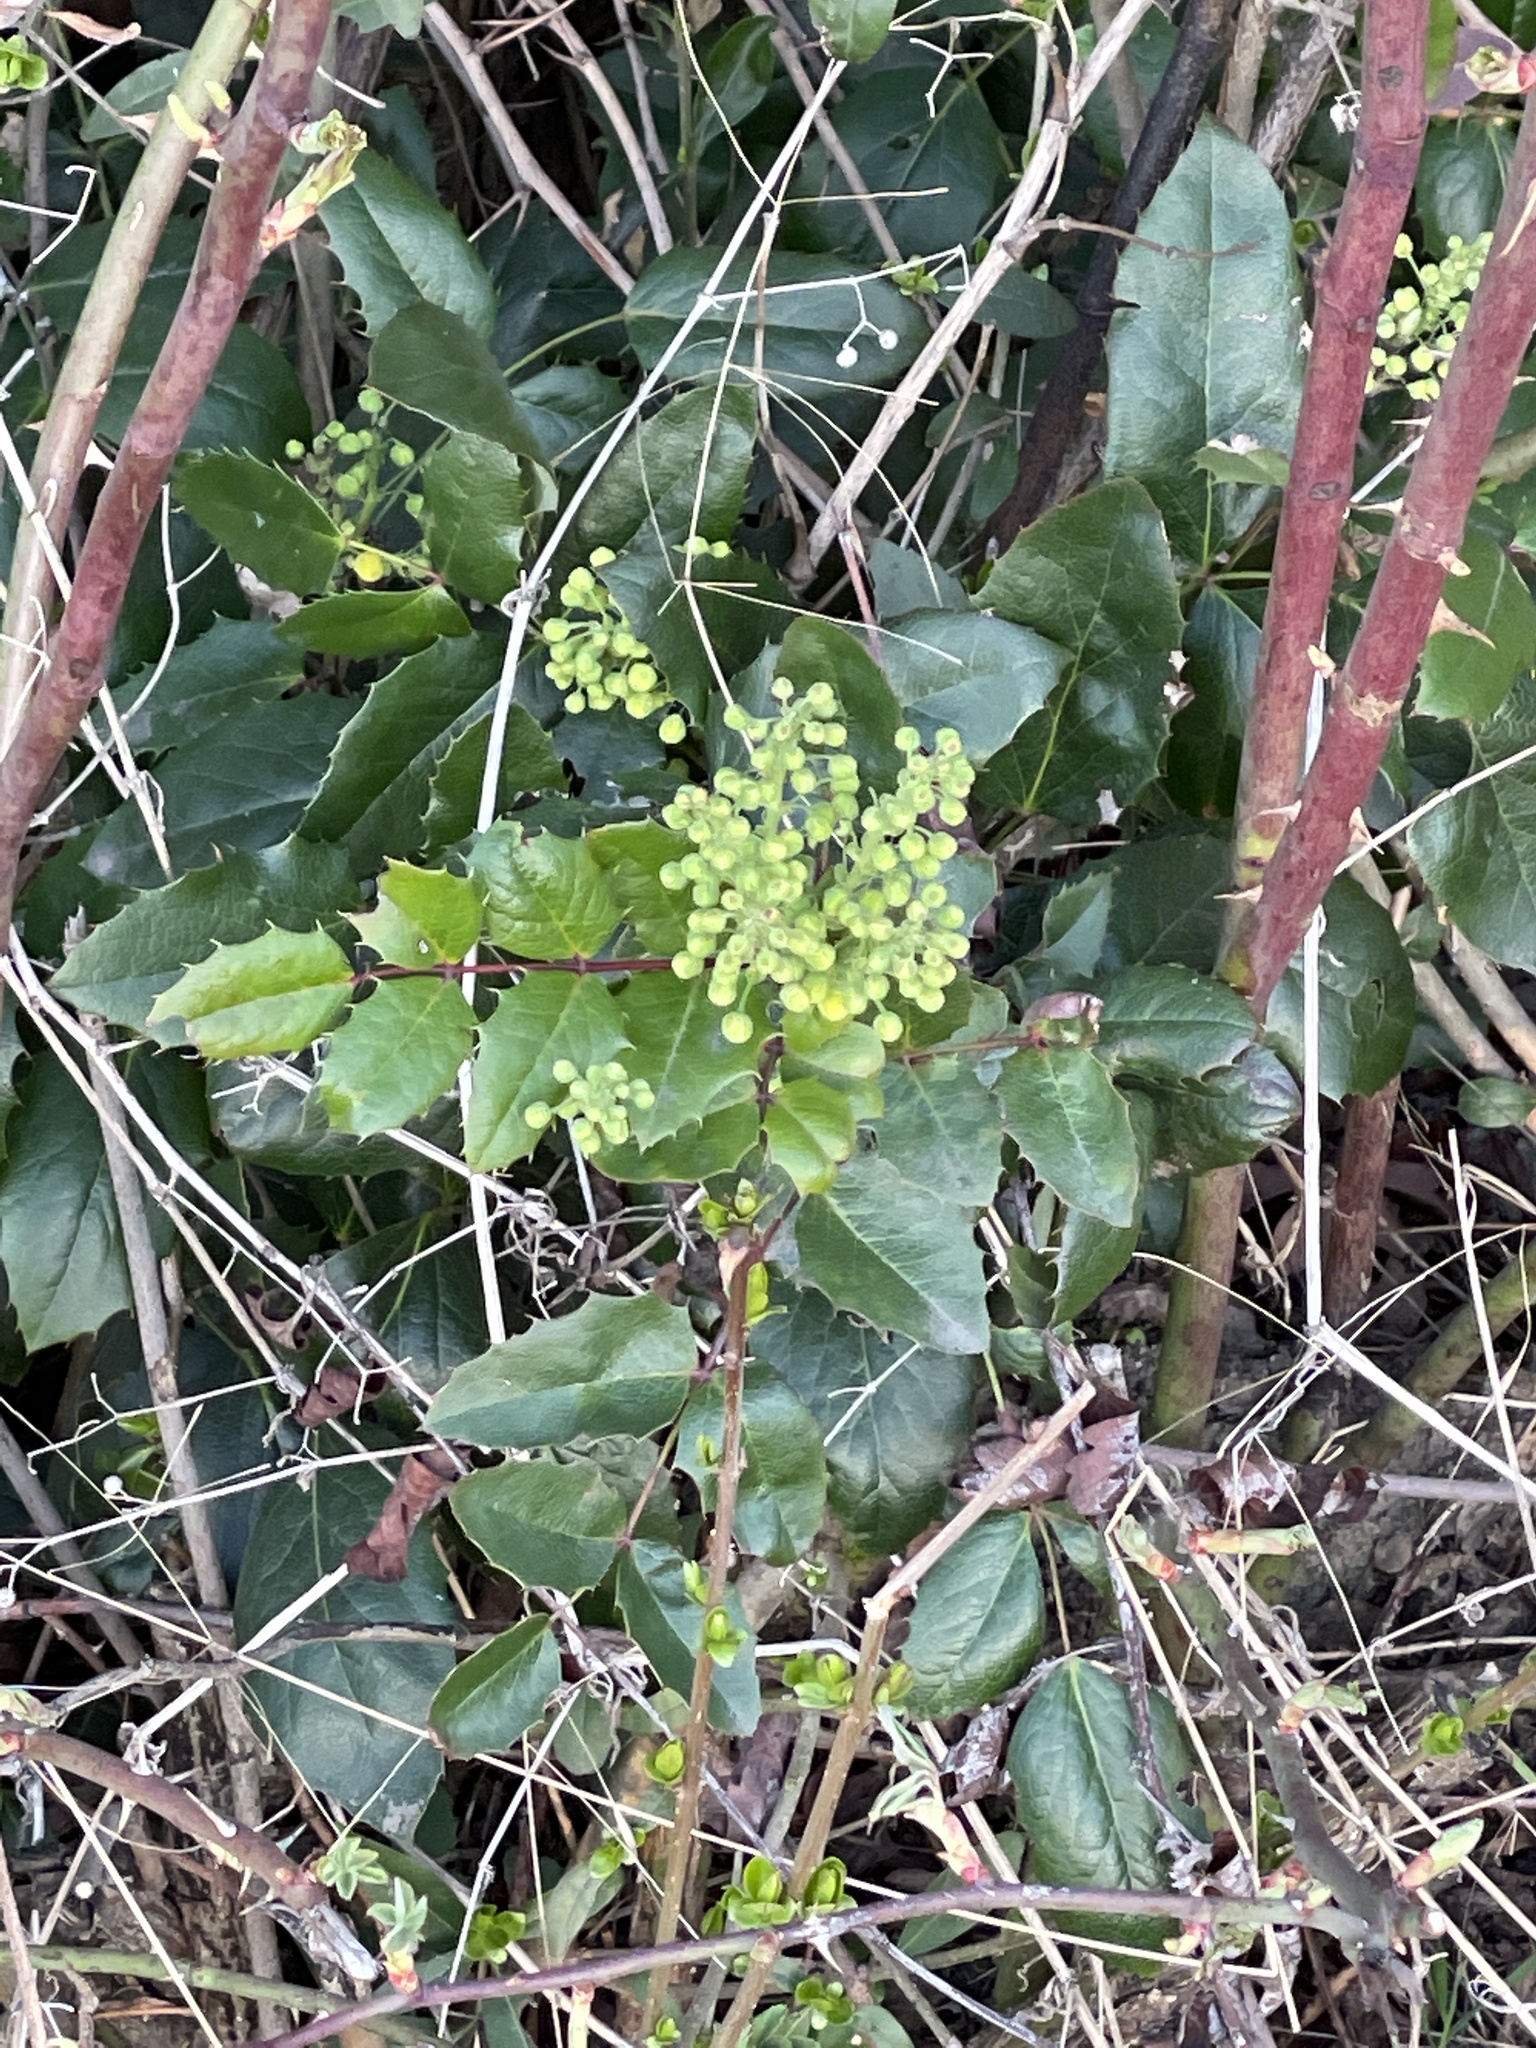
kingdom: Plantae
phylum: Tracheophyta
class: Magnoliopsida
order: Ranunculales
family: Berberidaceae
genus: Mahonia
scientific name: Mahonia aquifolium
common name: Oregon-grape
